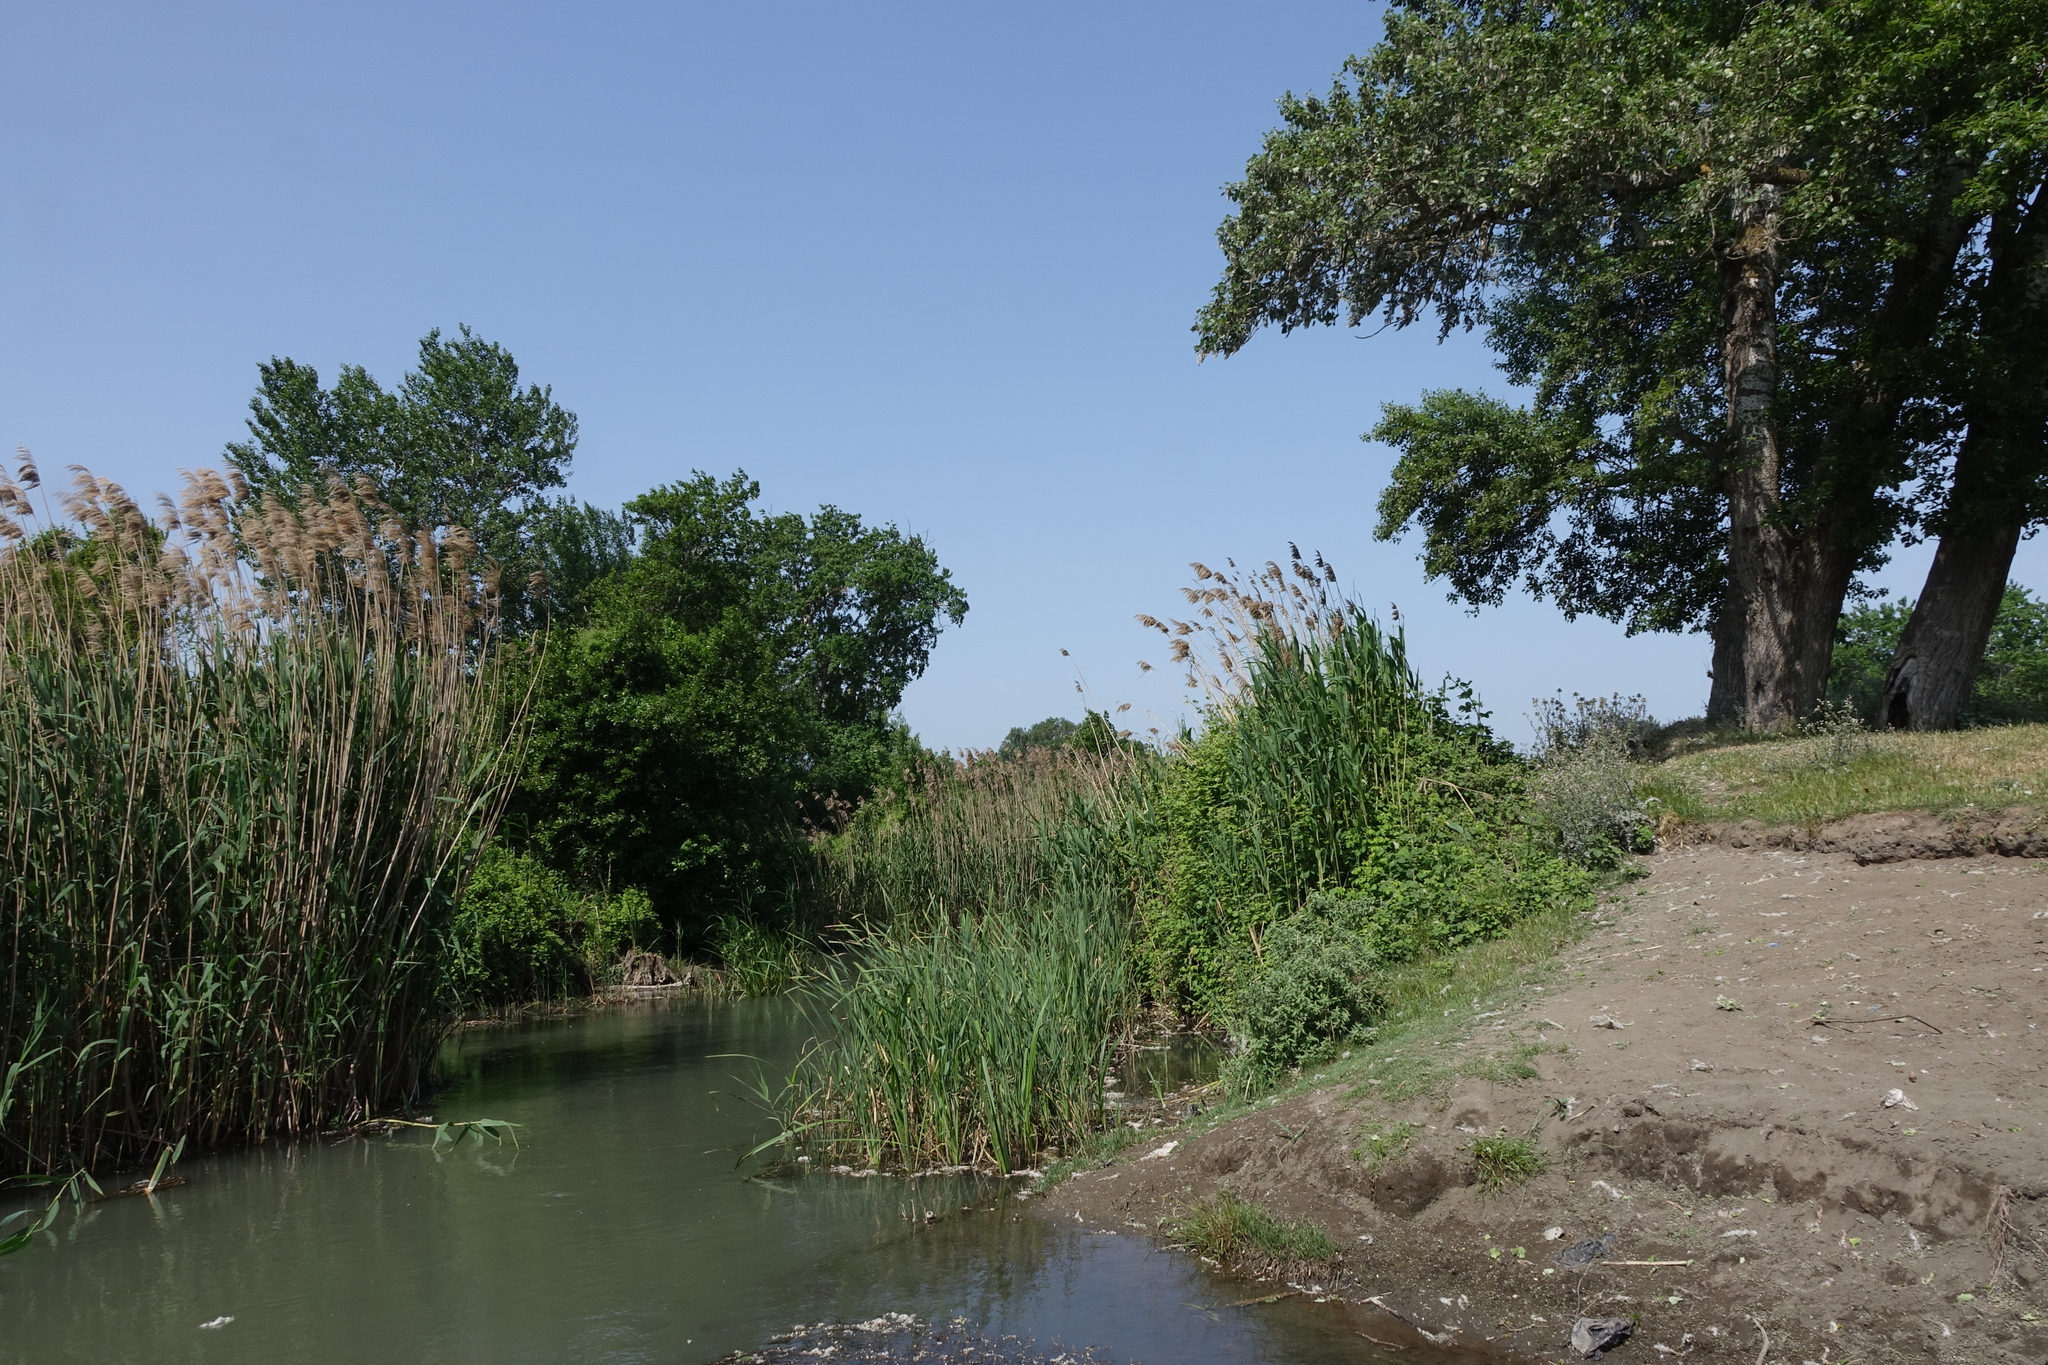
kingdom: Plantae
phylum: Tracheophyta
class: Liliopsida
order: Poales
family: Poaceae
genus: Phragmites
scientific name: Phragmites australis
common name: Common reed
